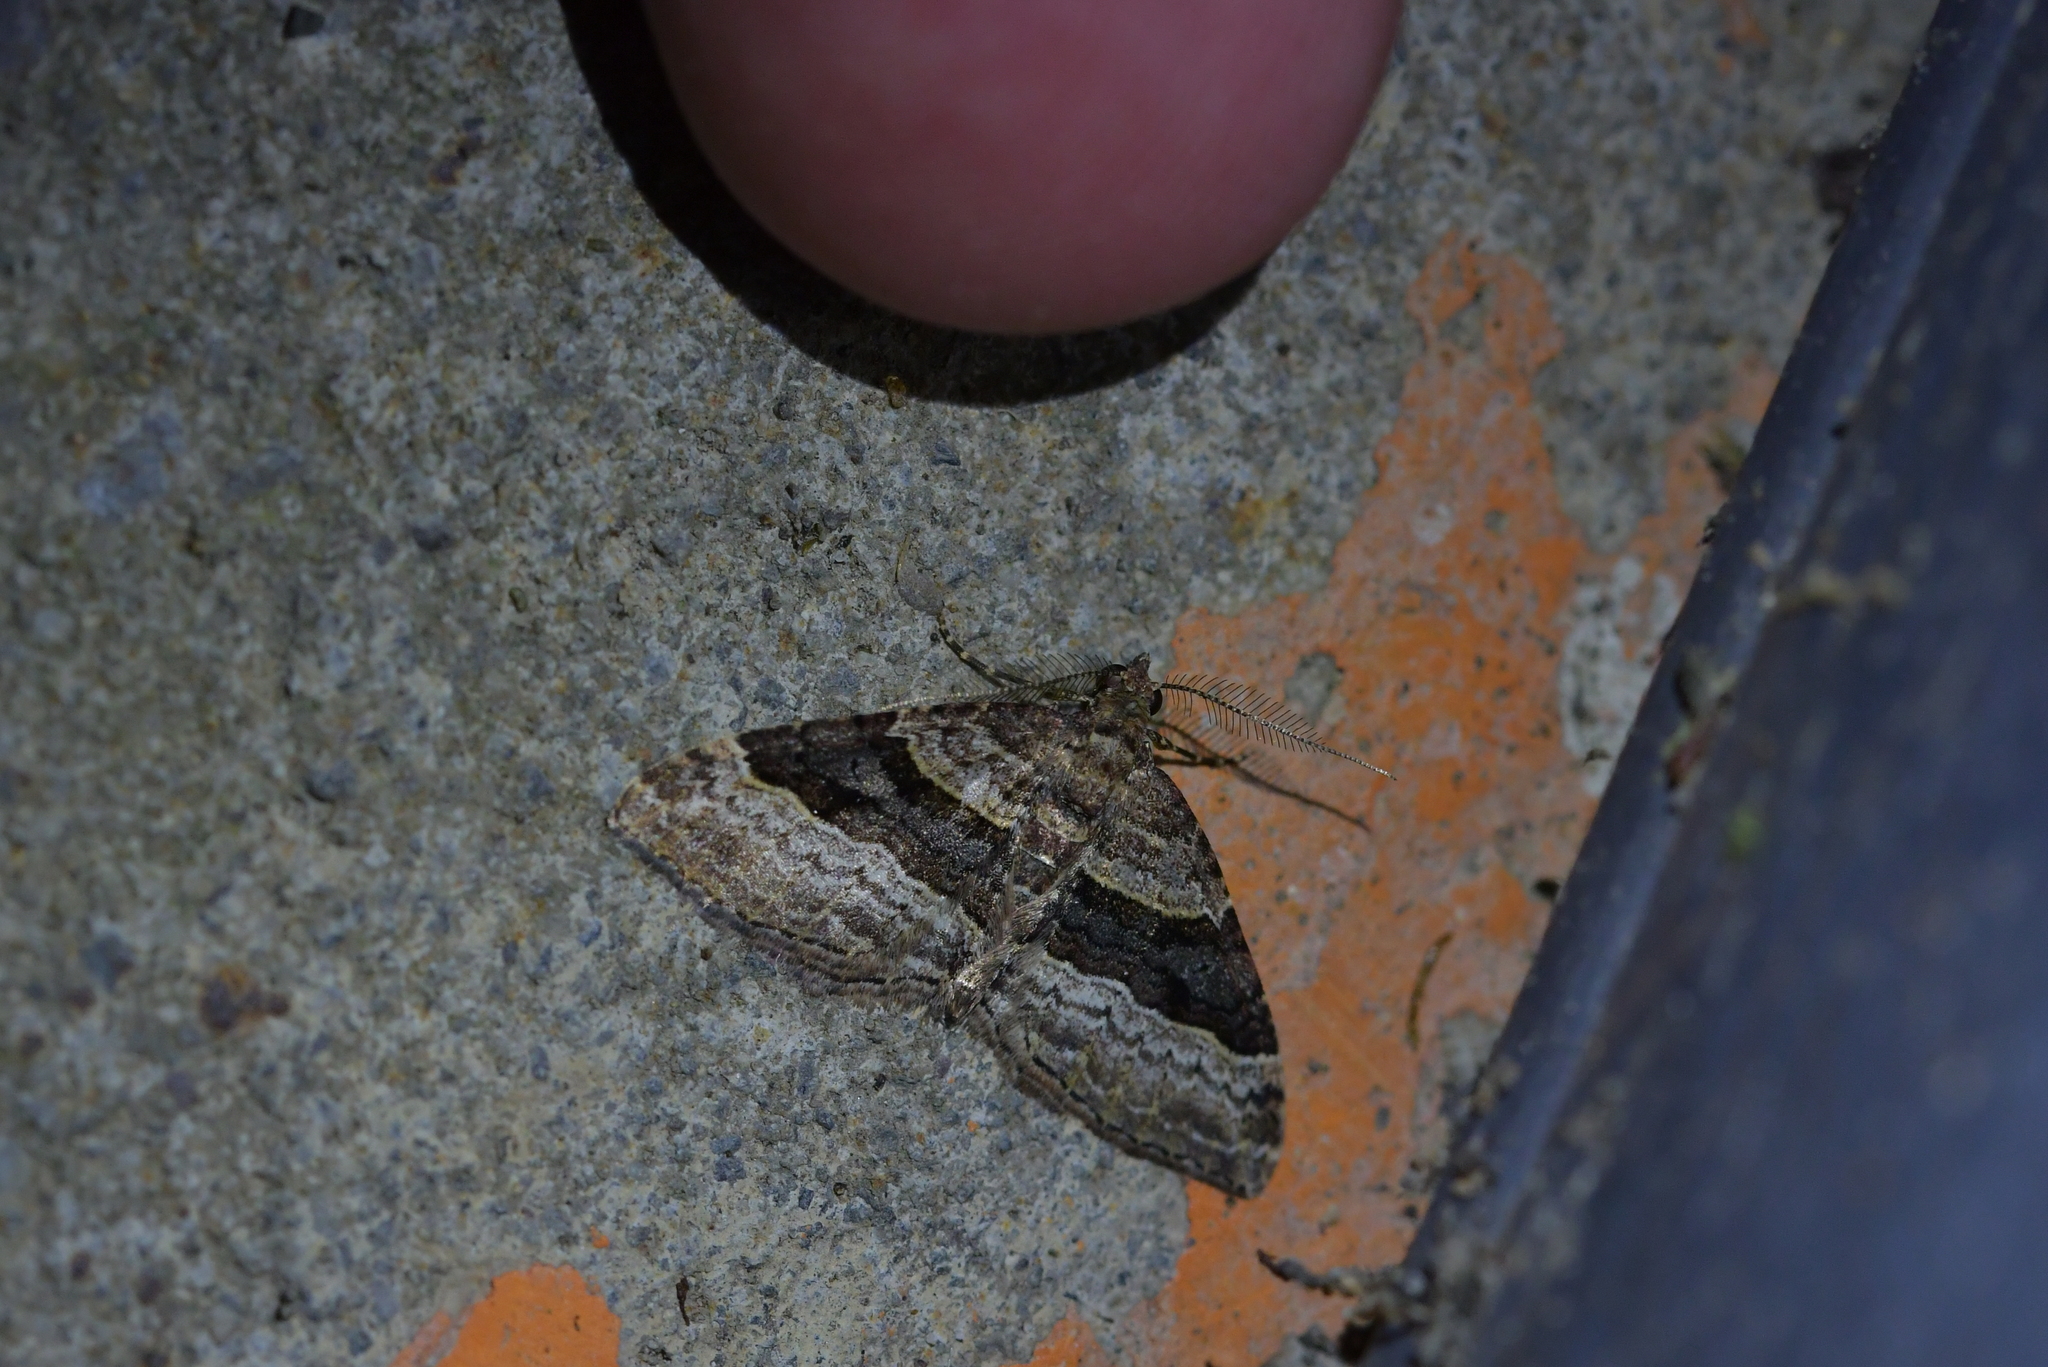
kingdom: Animalia
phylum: Arthropoda
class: Insecta
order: Lepidoptera
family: Geometridae
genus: Epyaxa
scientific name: Epyaxa lucidata
